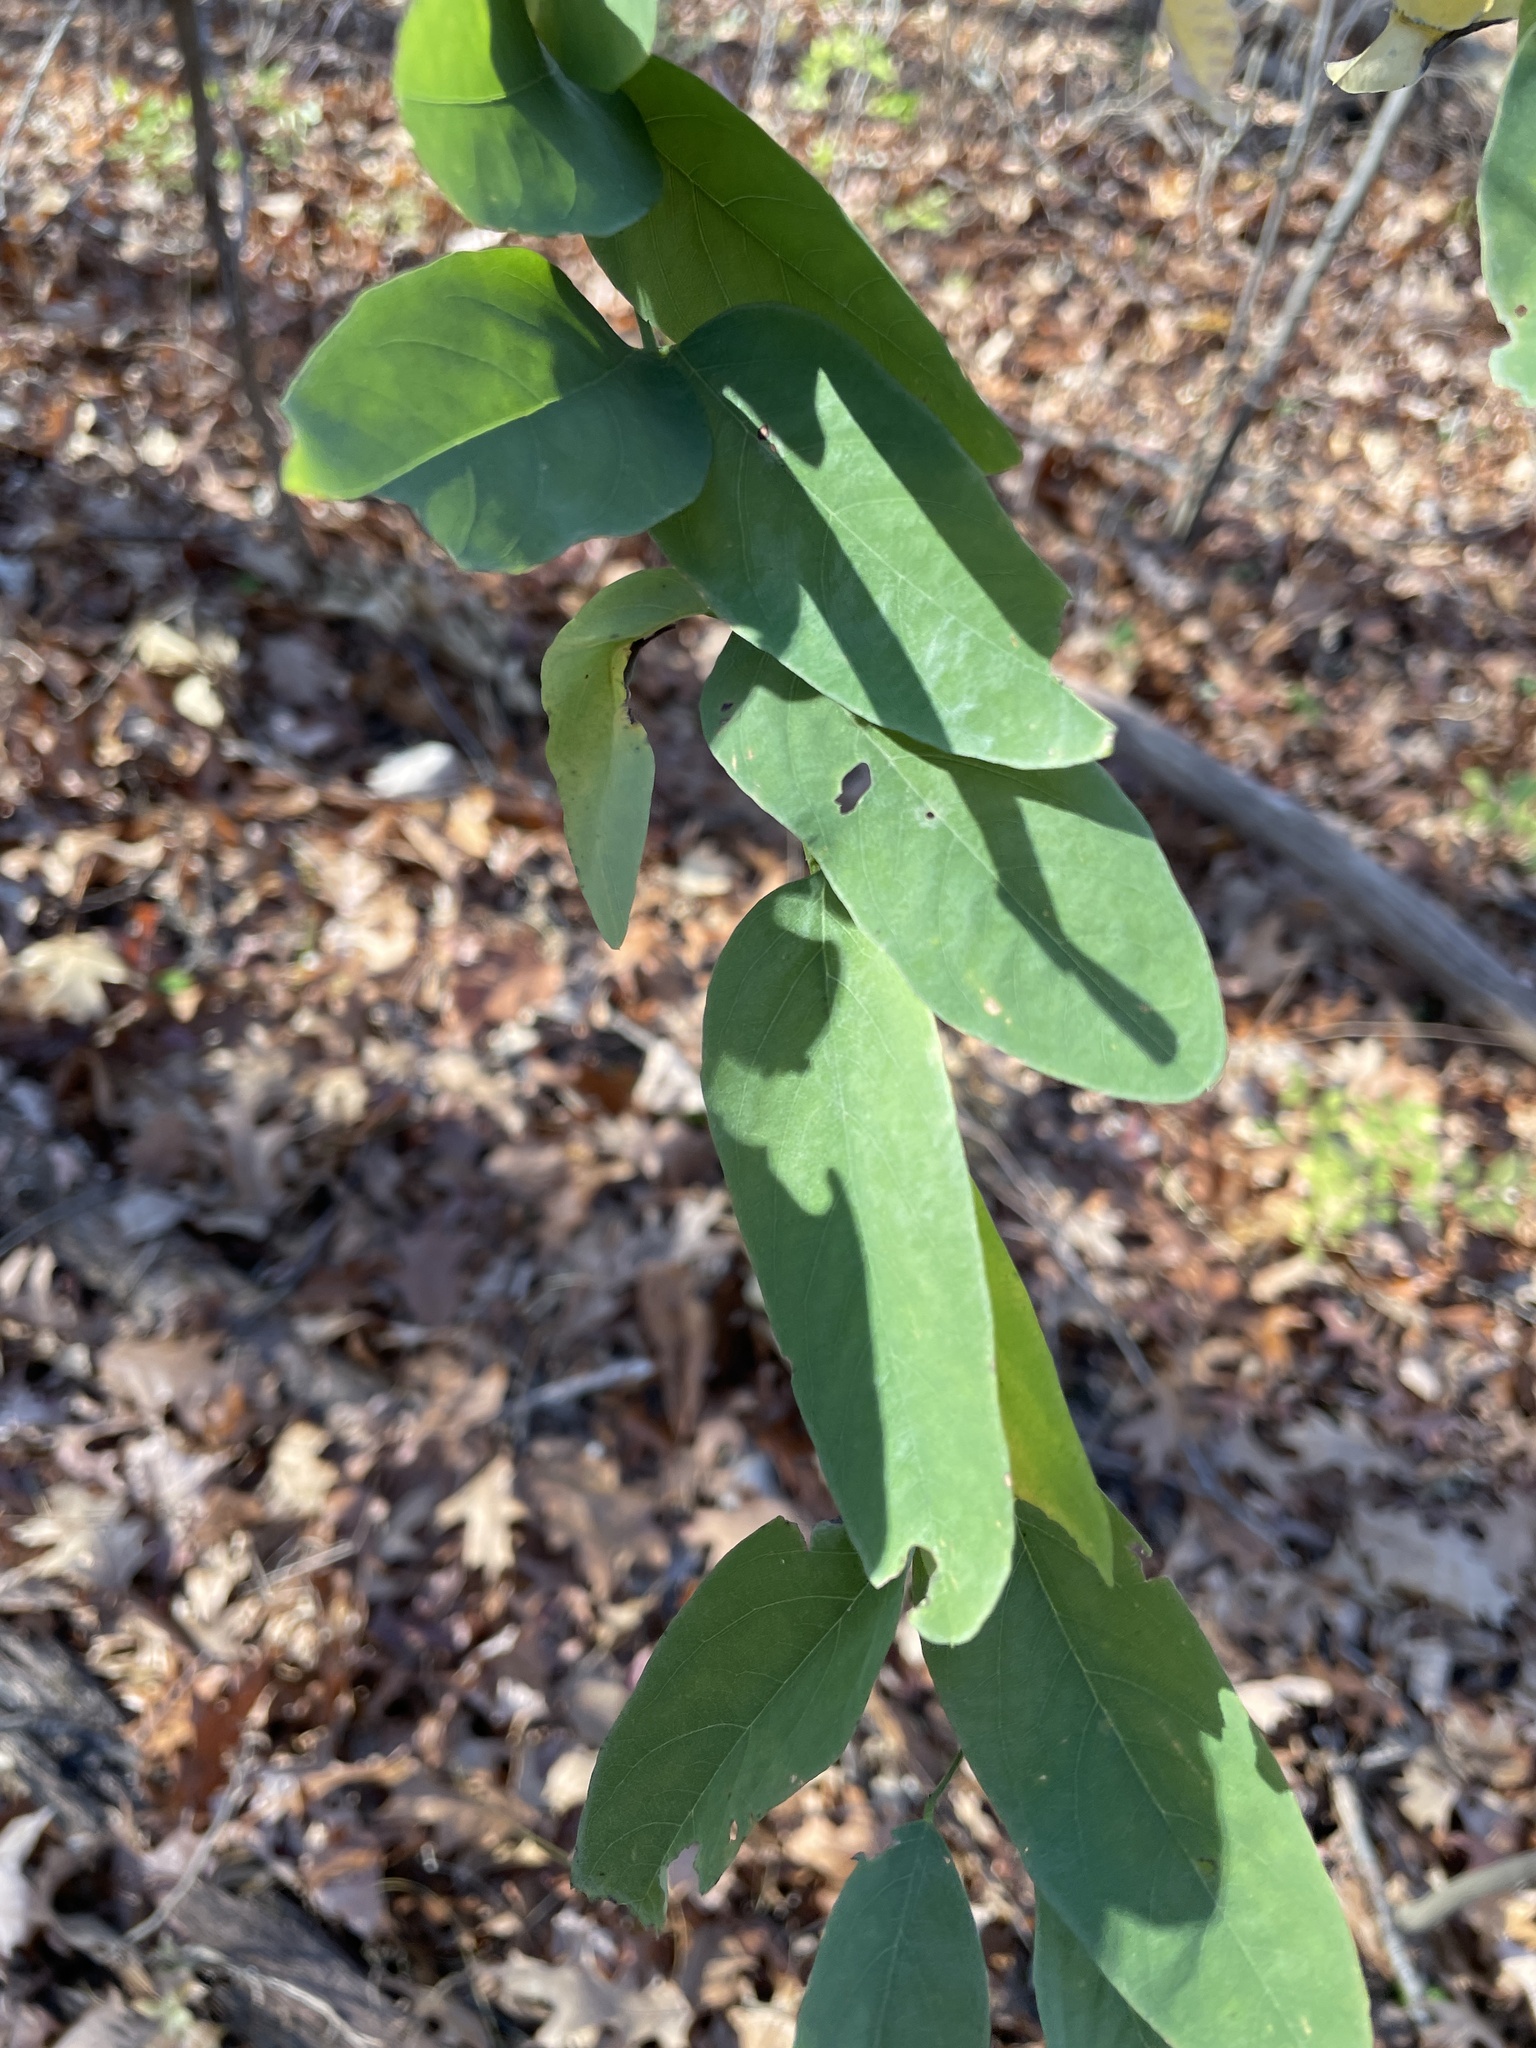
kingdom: Plantae
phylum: Tracheophyta
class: Magnoliopsida
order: Fabales
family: Fabaceae
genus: Robinia
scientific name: Robinia pseudoacacia
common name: Black locust
